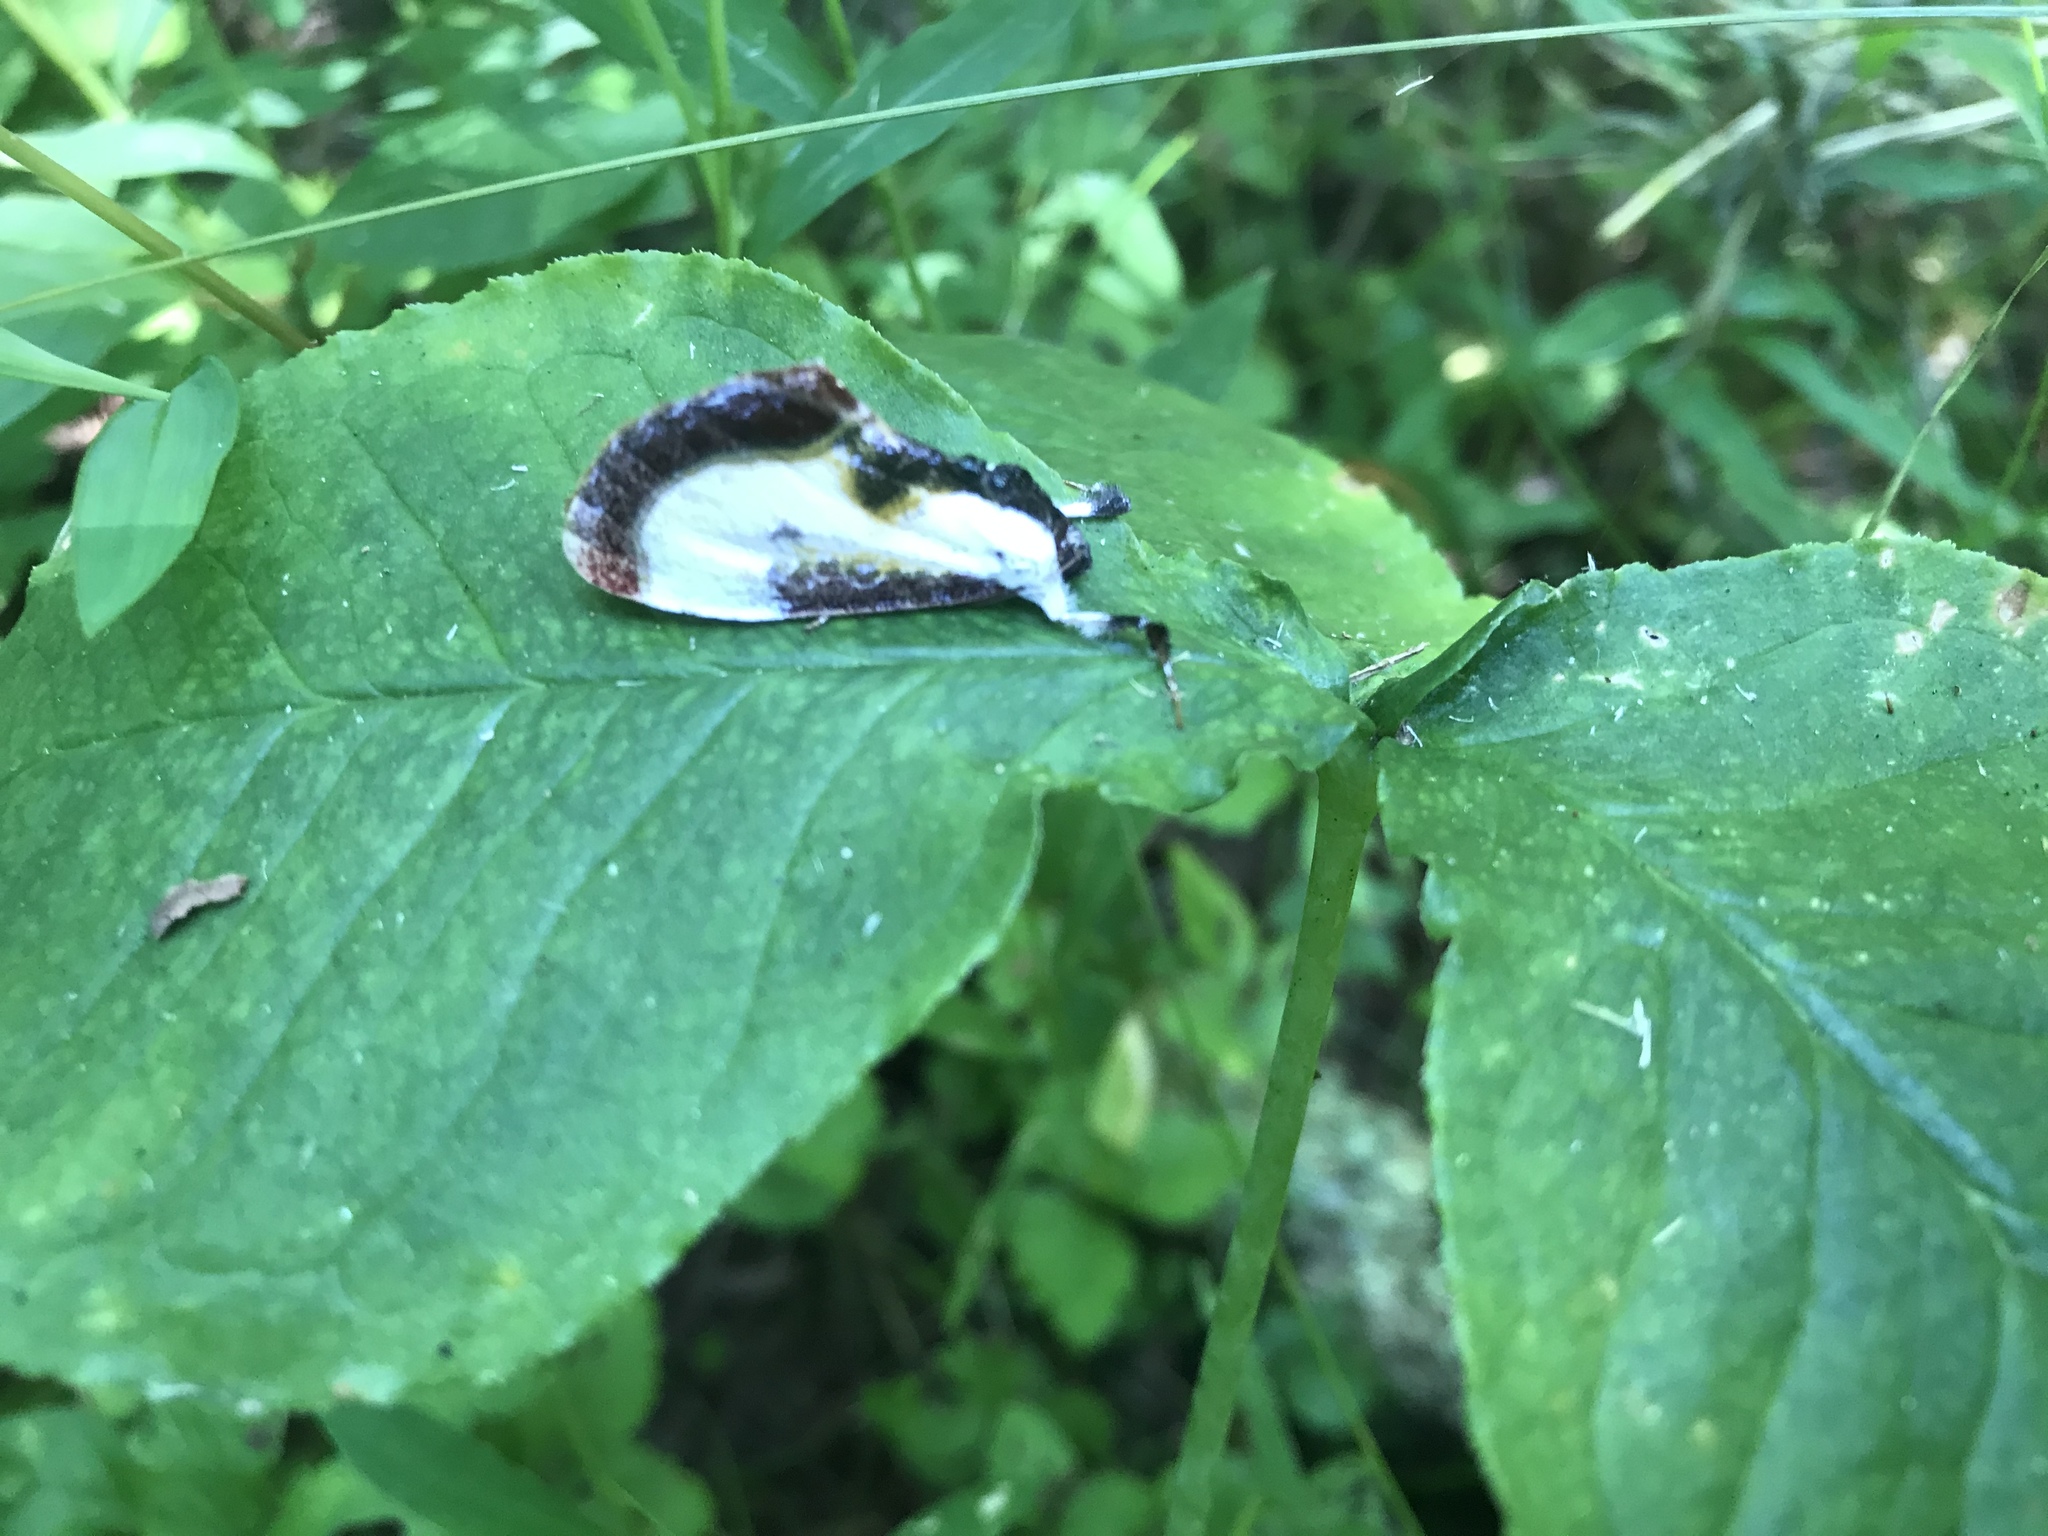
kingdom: Animalia
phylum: Arthropoda
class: Insecta
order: Lepidoptera
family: Noctuidae
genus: Eudryas
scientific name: Eudryas grata
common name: Beautiful wood-nymph
